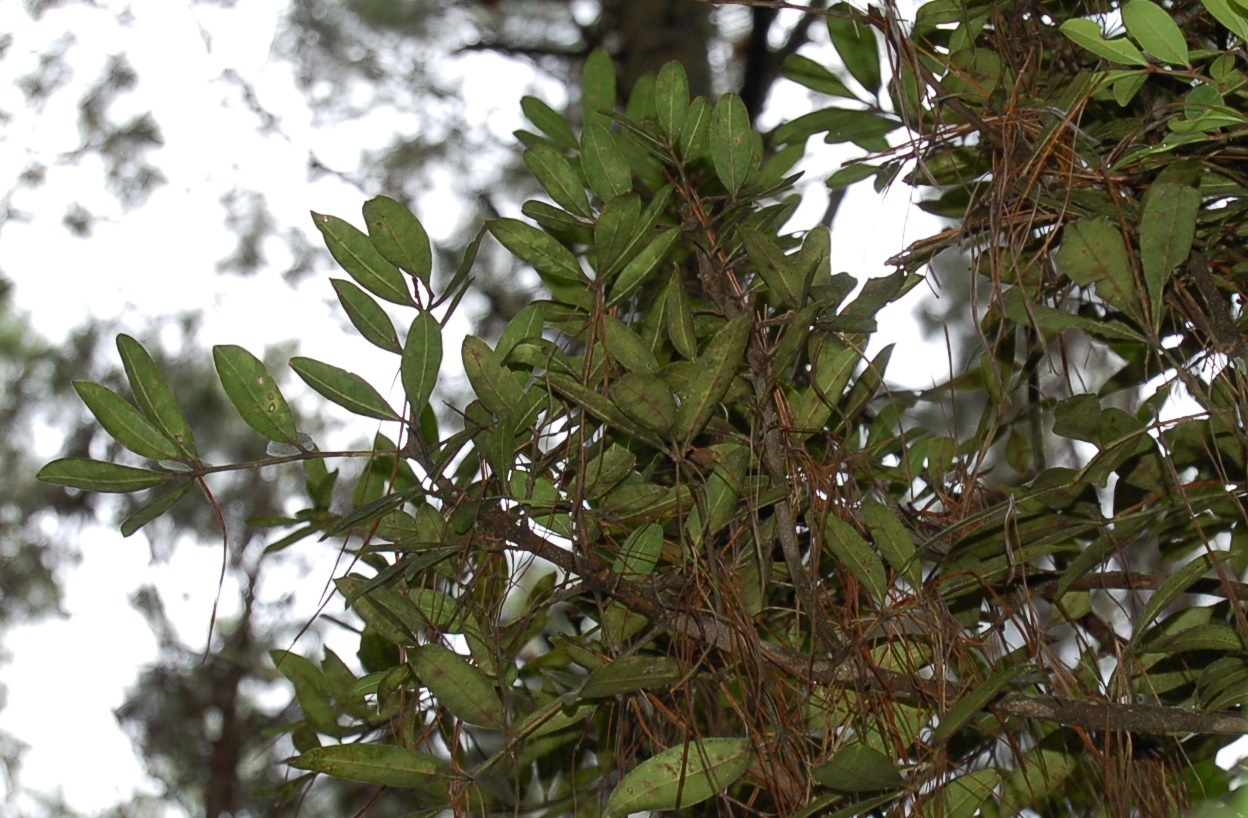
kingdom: Plantae
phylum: Tracheophyta
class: Magnoliopsida
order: Sapindales
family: Rutaceae
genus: Zanthoxylum
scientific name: Zanthoxylum melanostictum
